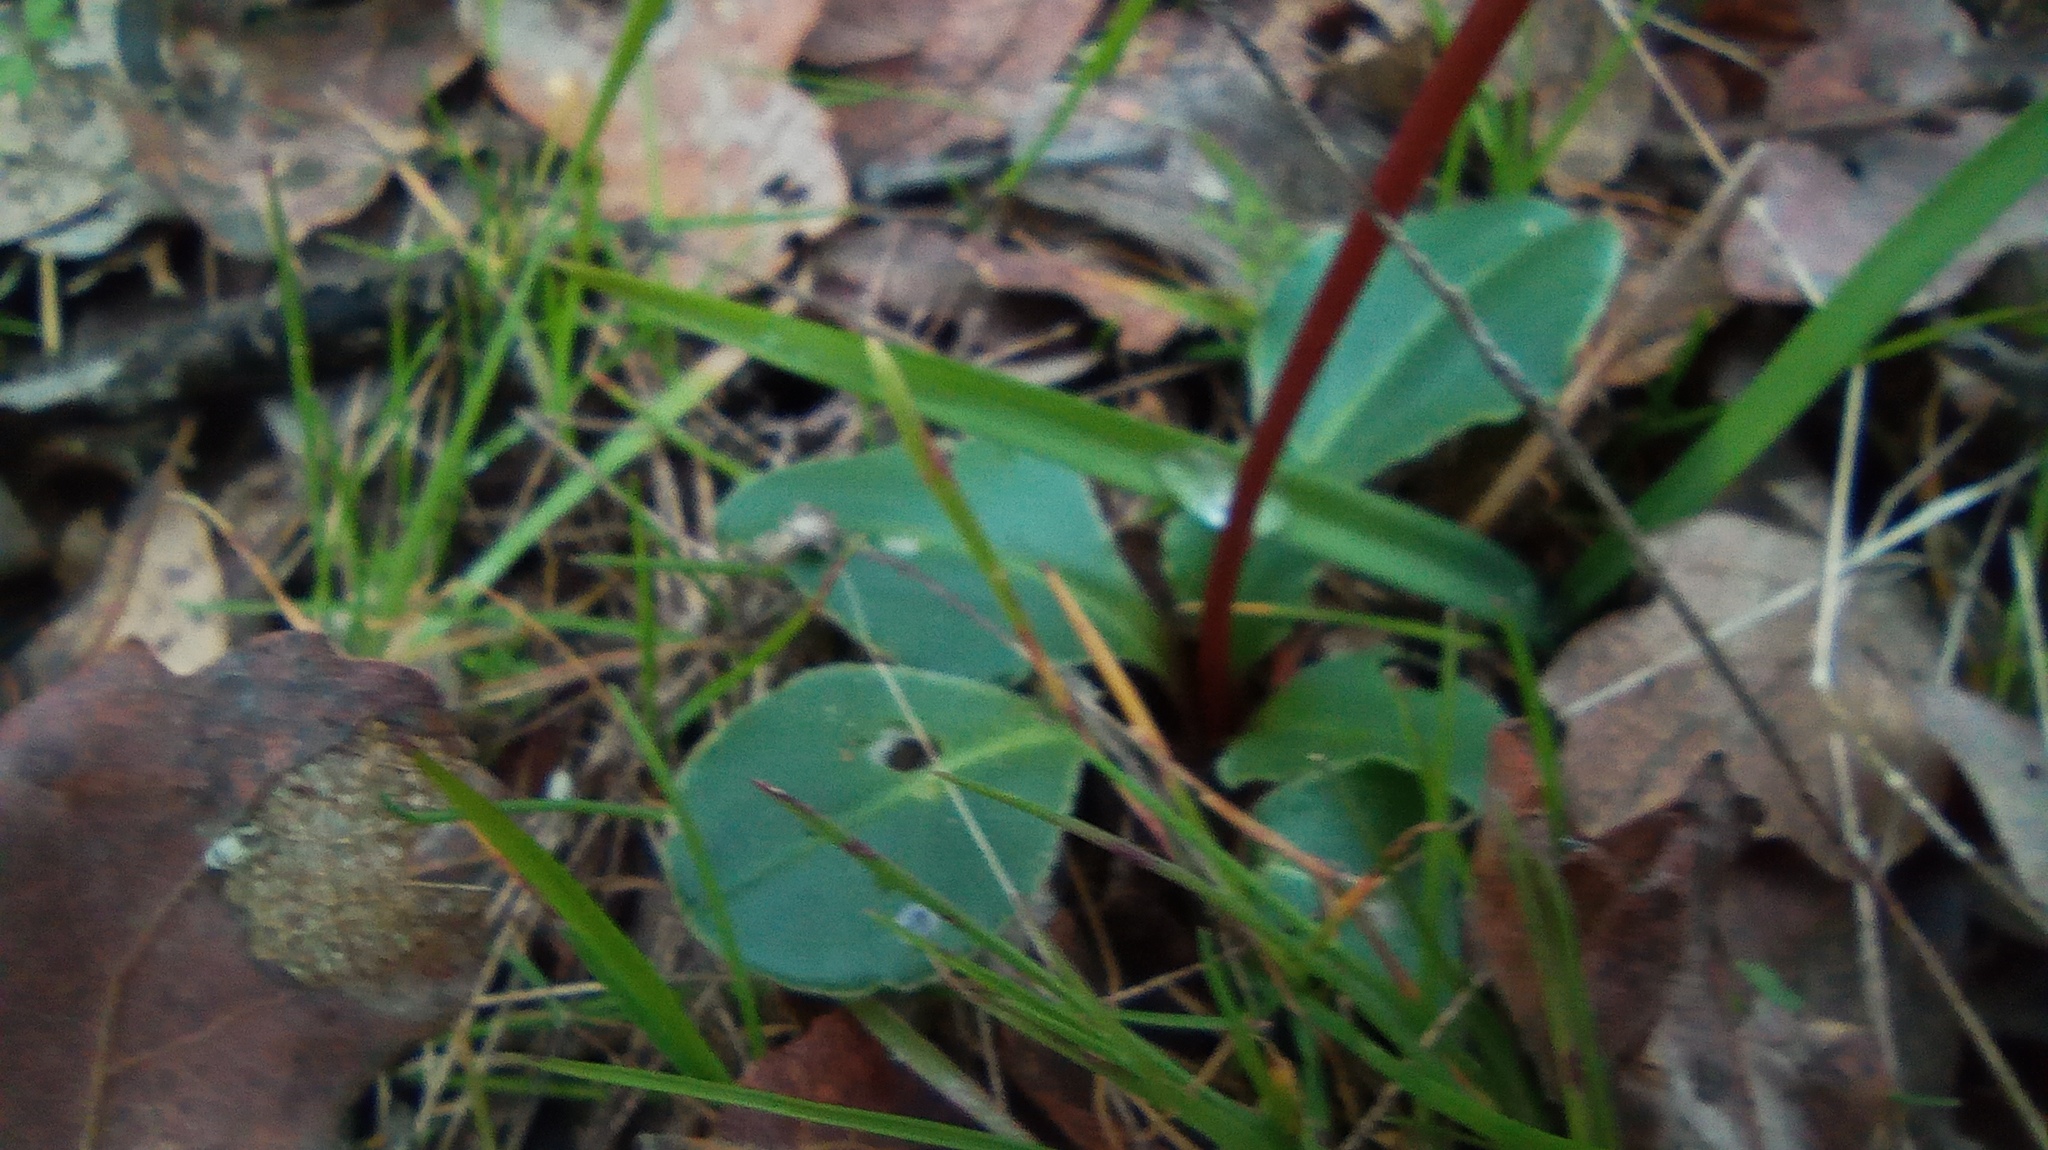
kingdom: Plantae
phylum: Tracheophyta
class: Magnoliopsida
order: Ericales
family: Primulaceae
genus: Dodecatheon
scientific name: Dodecatheon hendersonii
